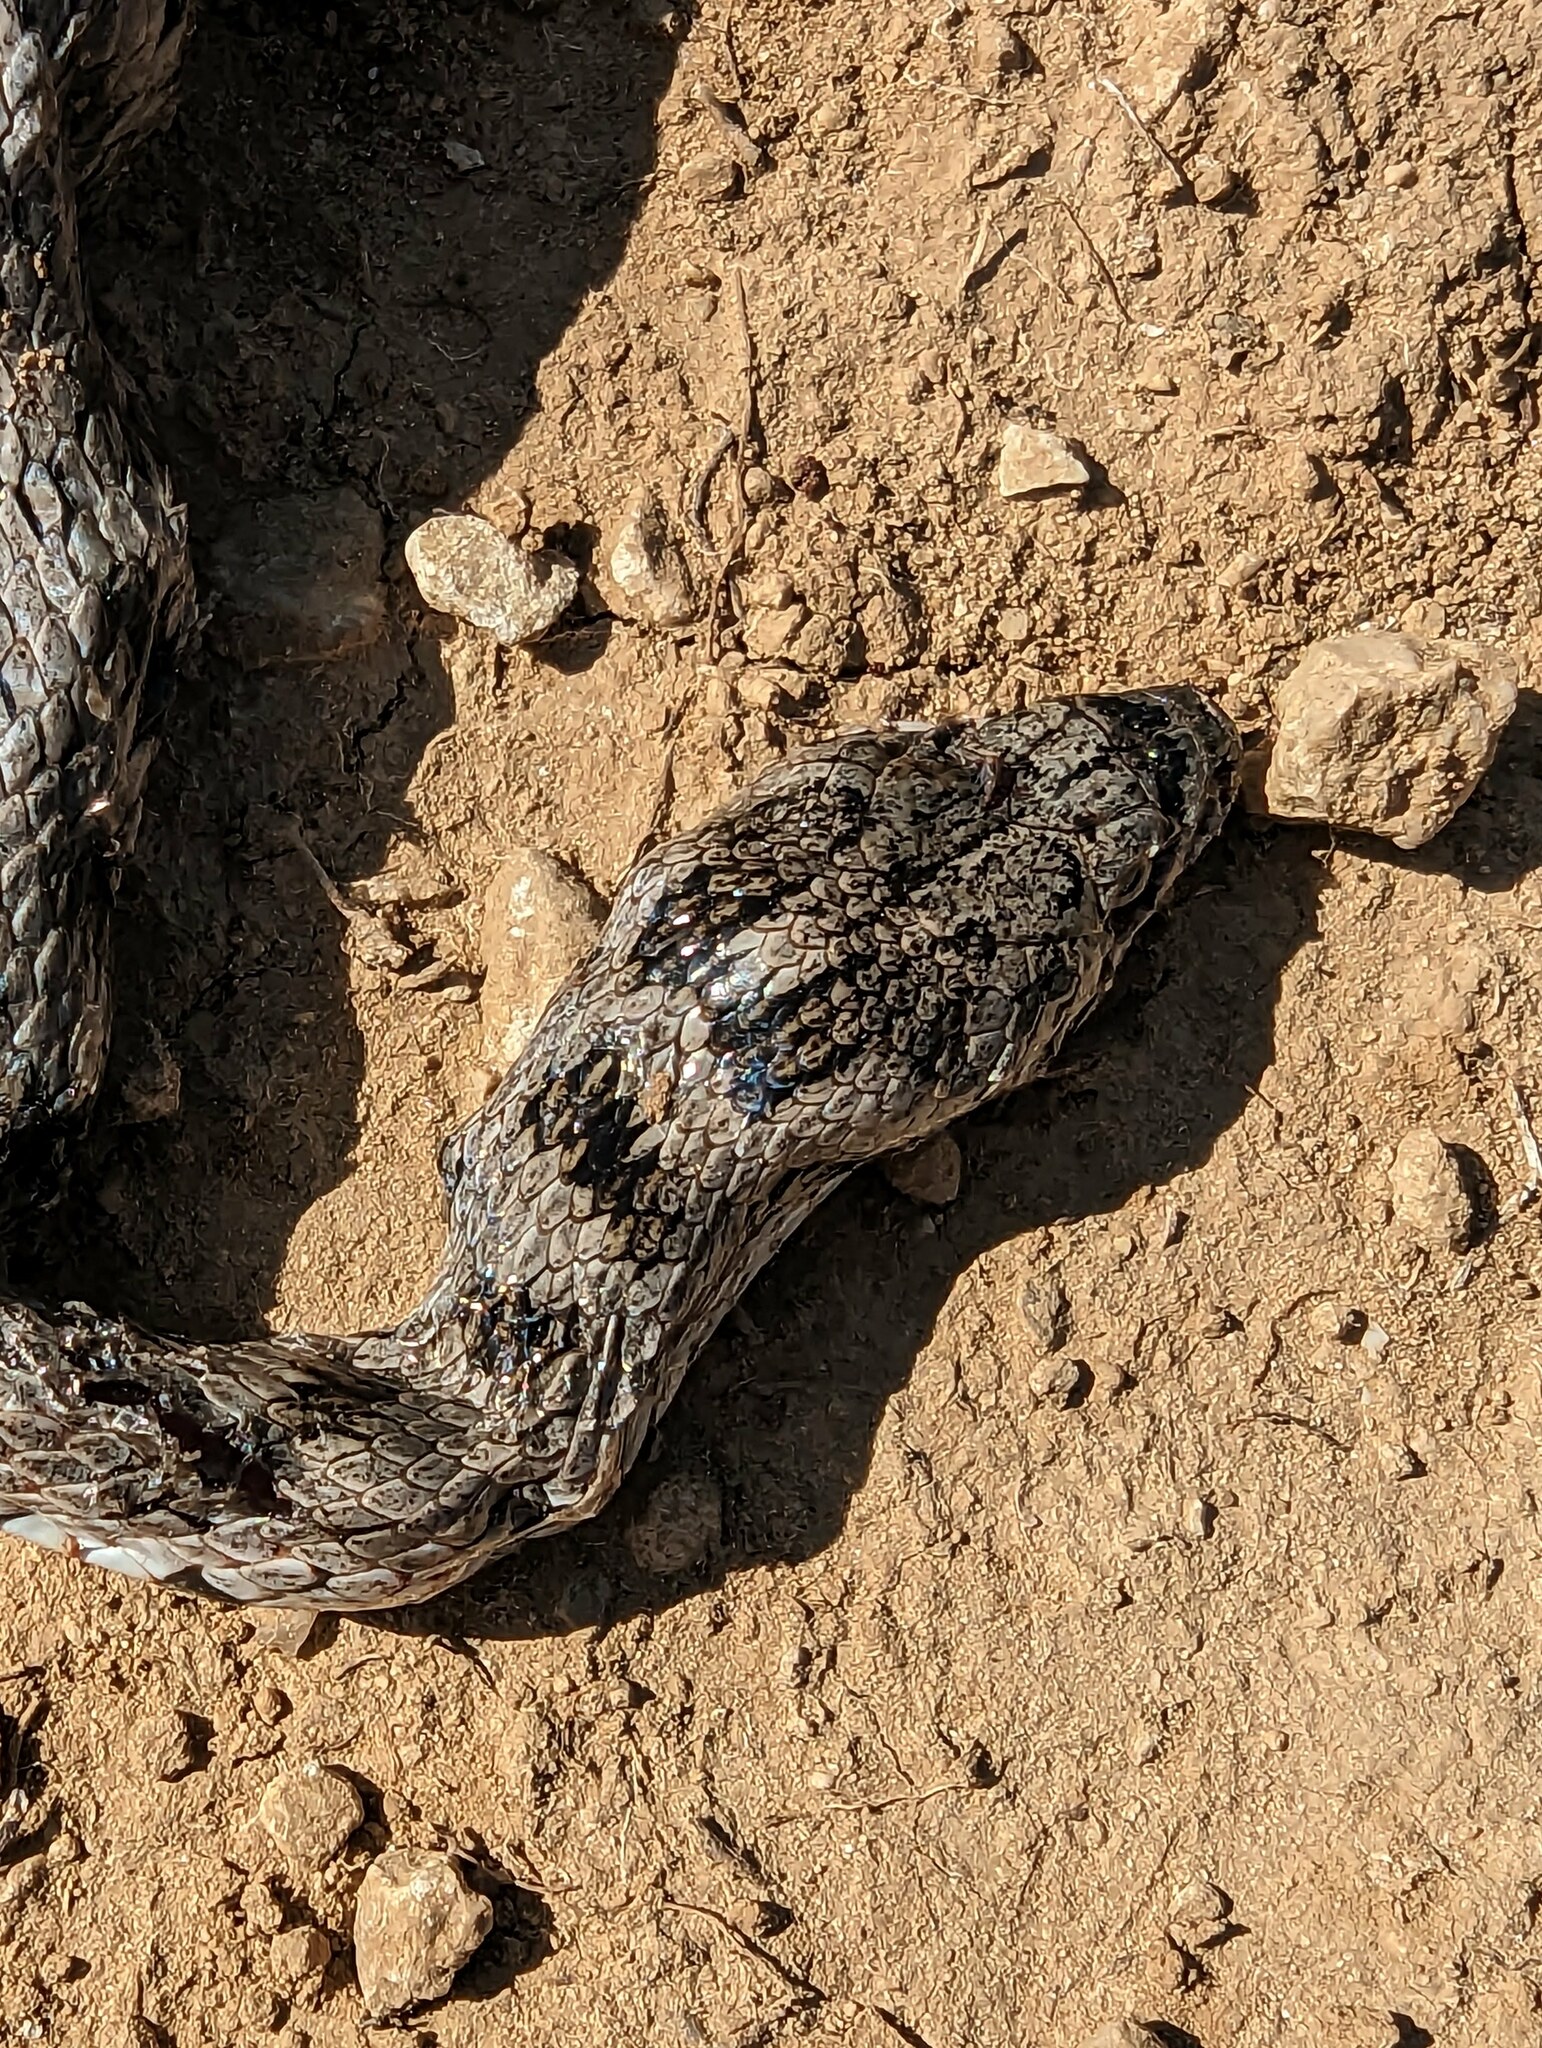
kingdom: Animalia
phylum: Chordata
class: Squamata
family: Colubridae
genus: Coronella
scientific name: Coronella girondica
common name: Southern smooth snake
